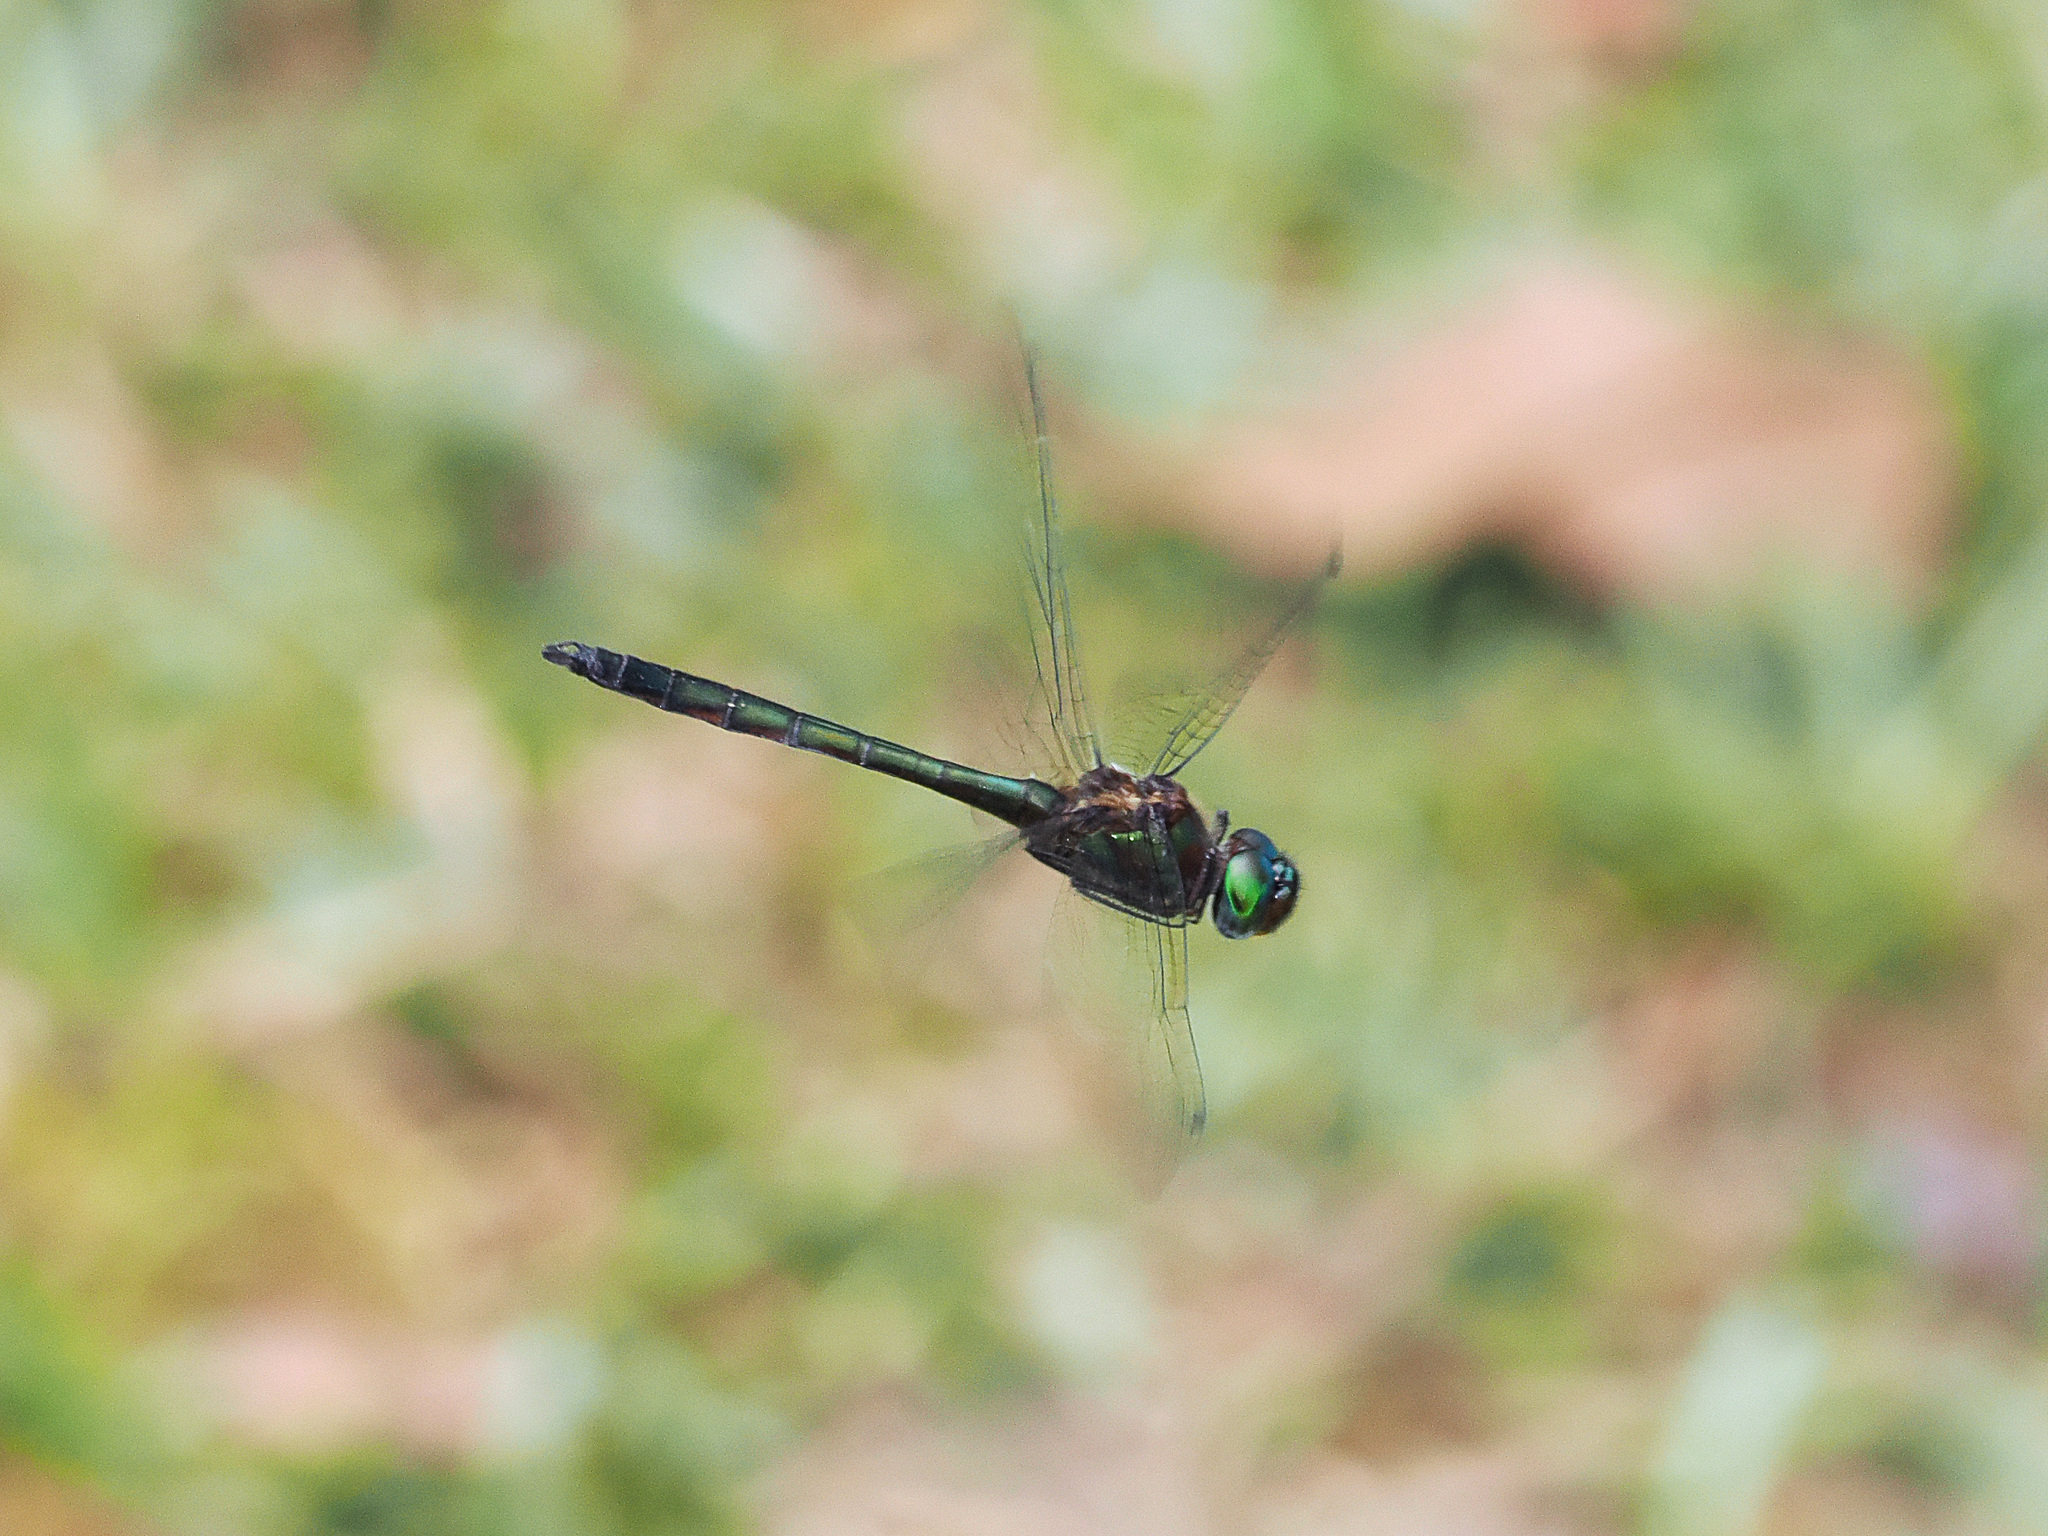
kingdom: Animalia
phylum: Arthropoda
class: Insecta
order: Odonata
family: Corduliidae
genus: Procordulia
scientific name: Procordulia fusiformis
